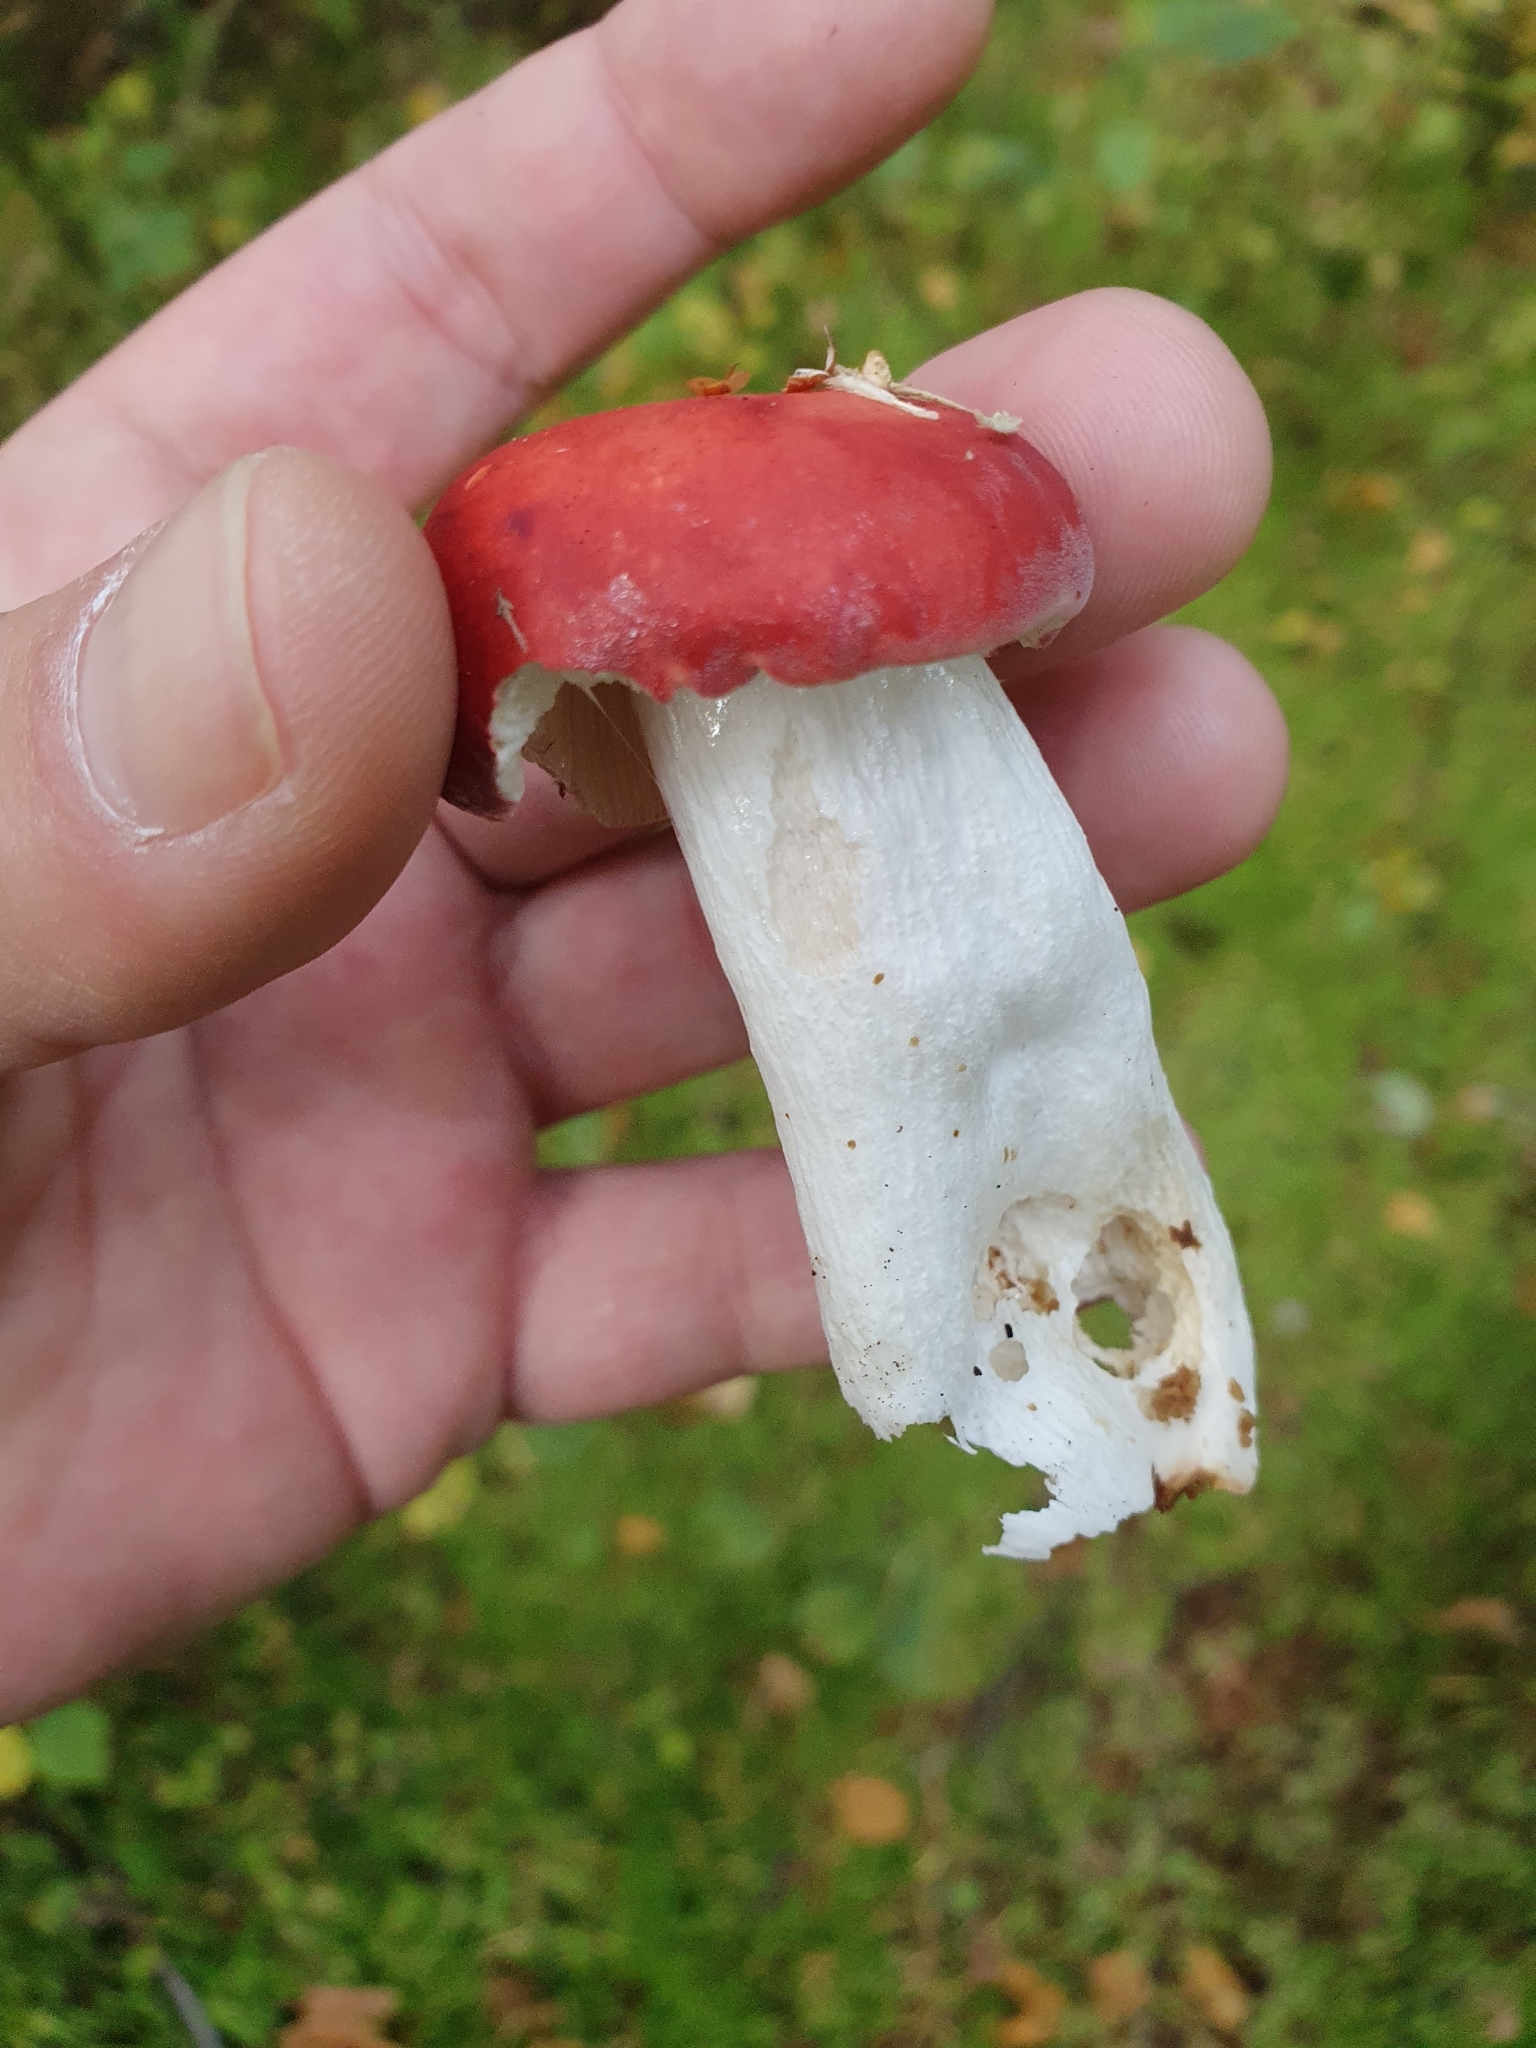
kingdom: Fungi
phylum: Basidiomycota
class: Agaricomycetes
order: Russulales
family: Russulaceae
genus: Russula
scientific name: Russula emetica
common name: Sickener
